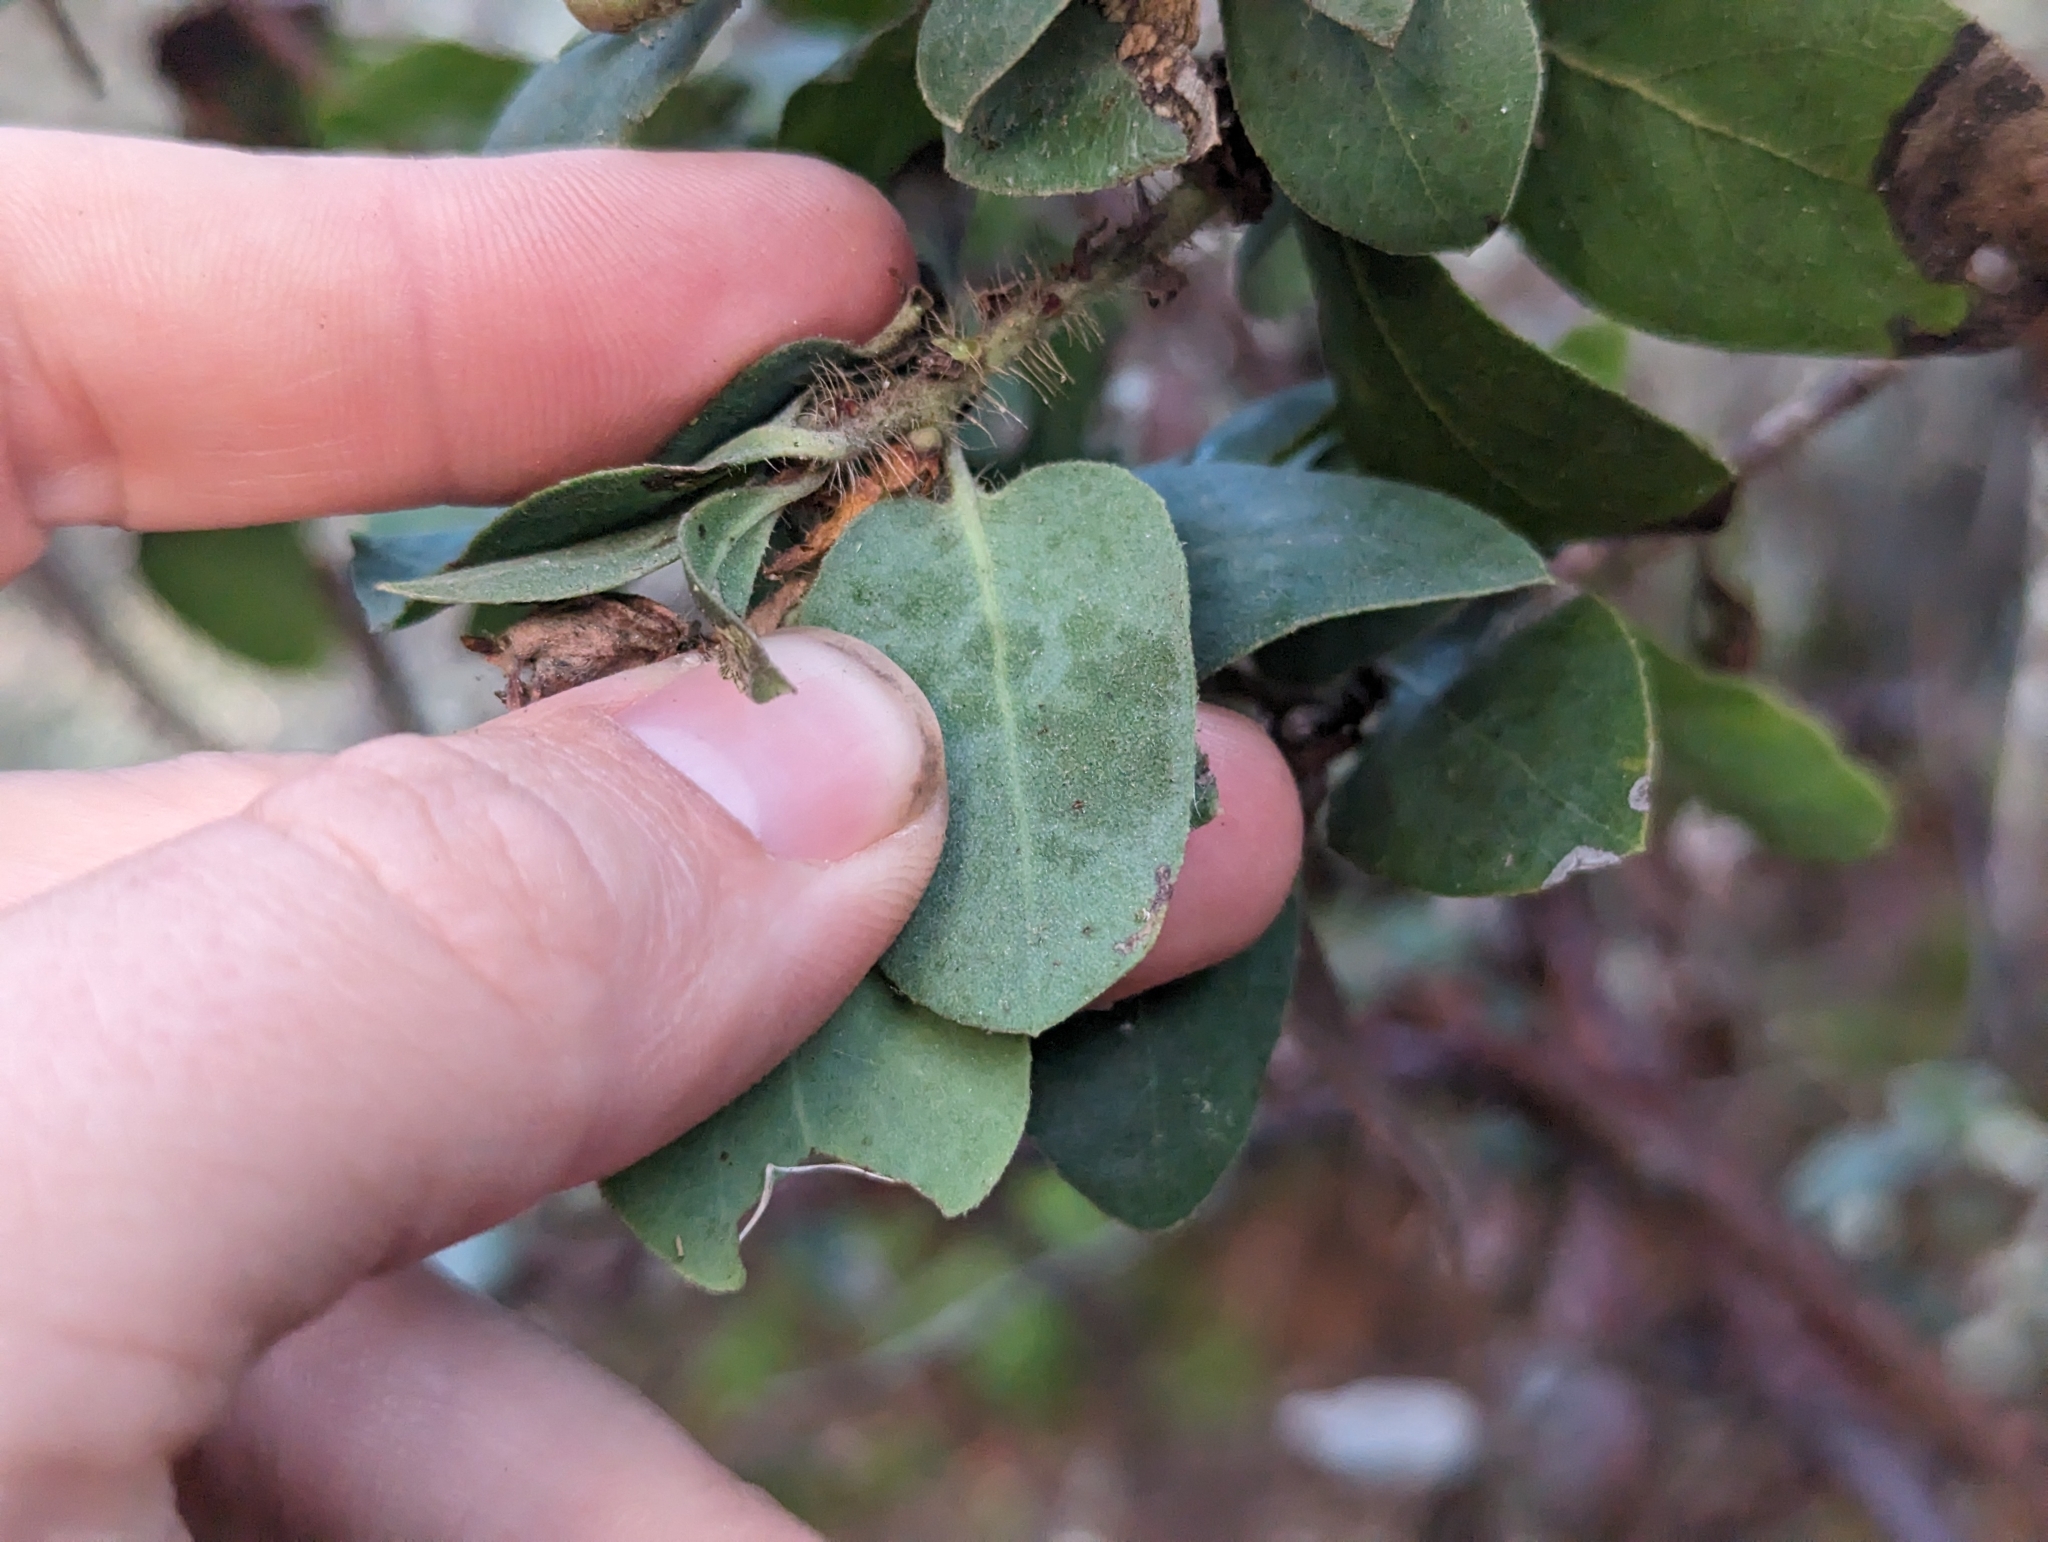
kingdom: Plantae
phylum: Tracheophyta
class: Magnoliopsida
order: Ericales
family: Ericaceae
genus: Arctostaphylos
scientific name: Arctostaphylos crustacea
